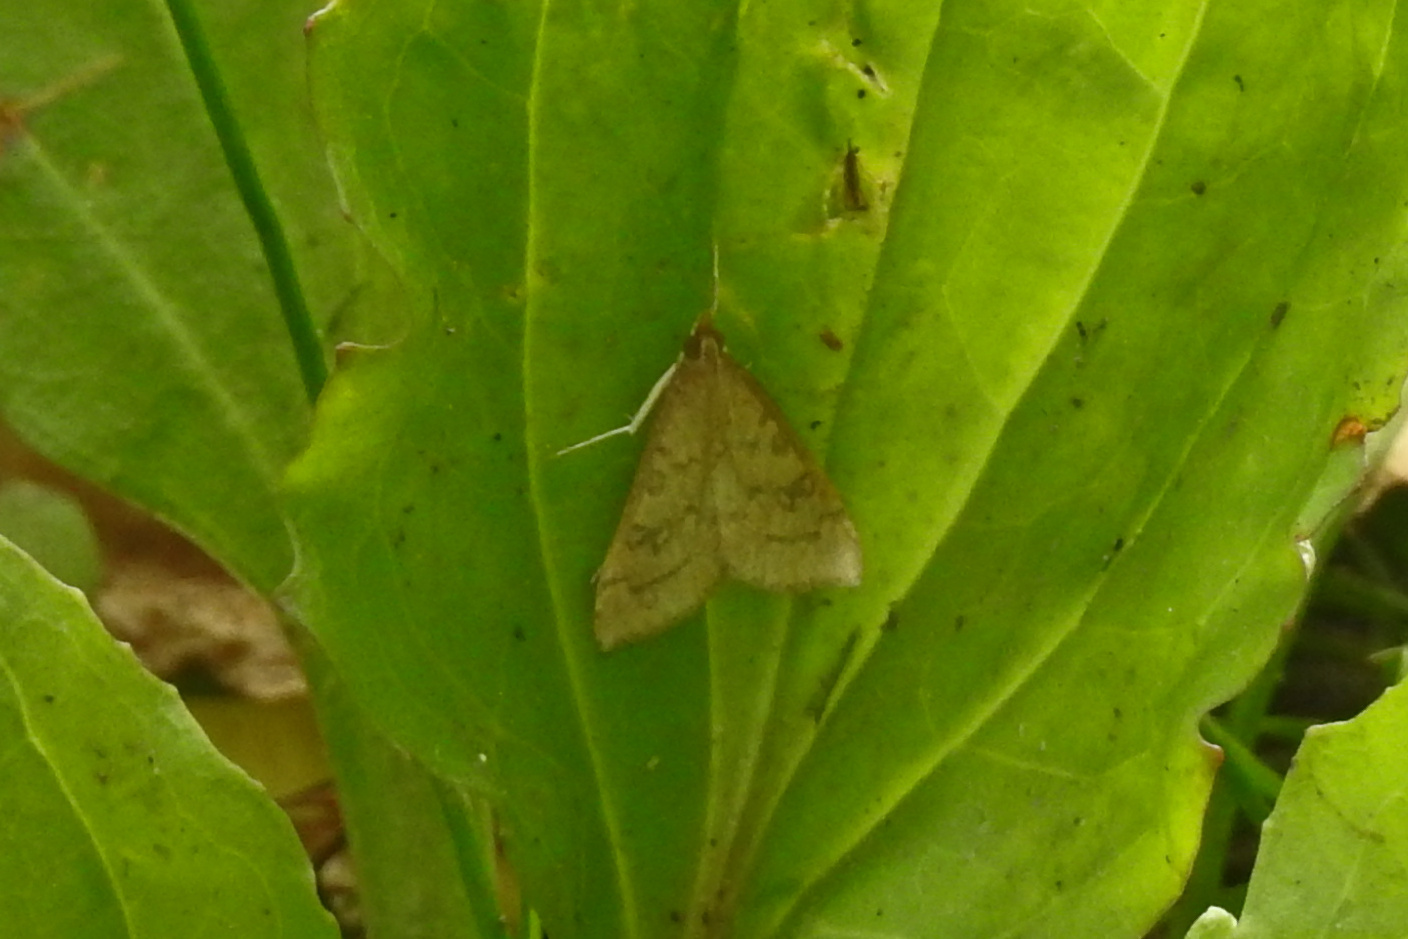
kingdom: Animalia
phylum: Arthropoda
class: Insecta
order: Lepidoptera
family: Crambidae
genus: Udea
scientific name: Udea rubigalis
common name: Celery leaftier moth
